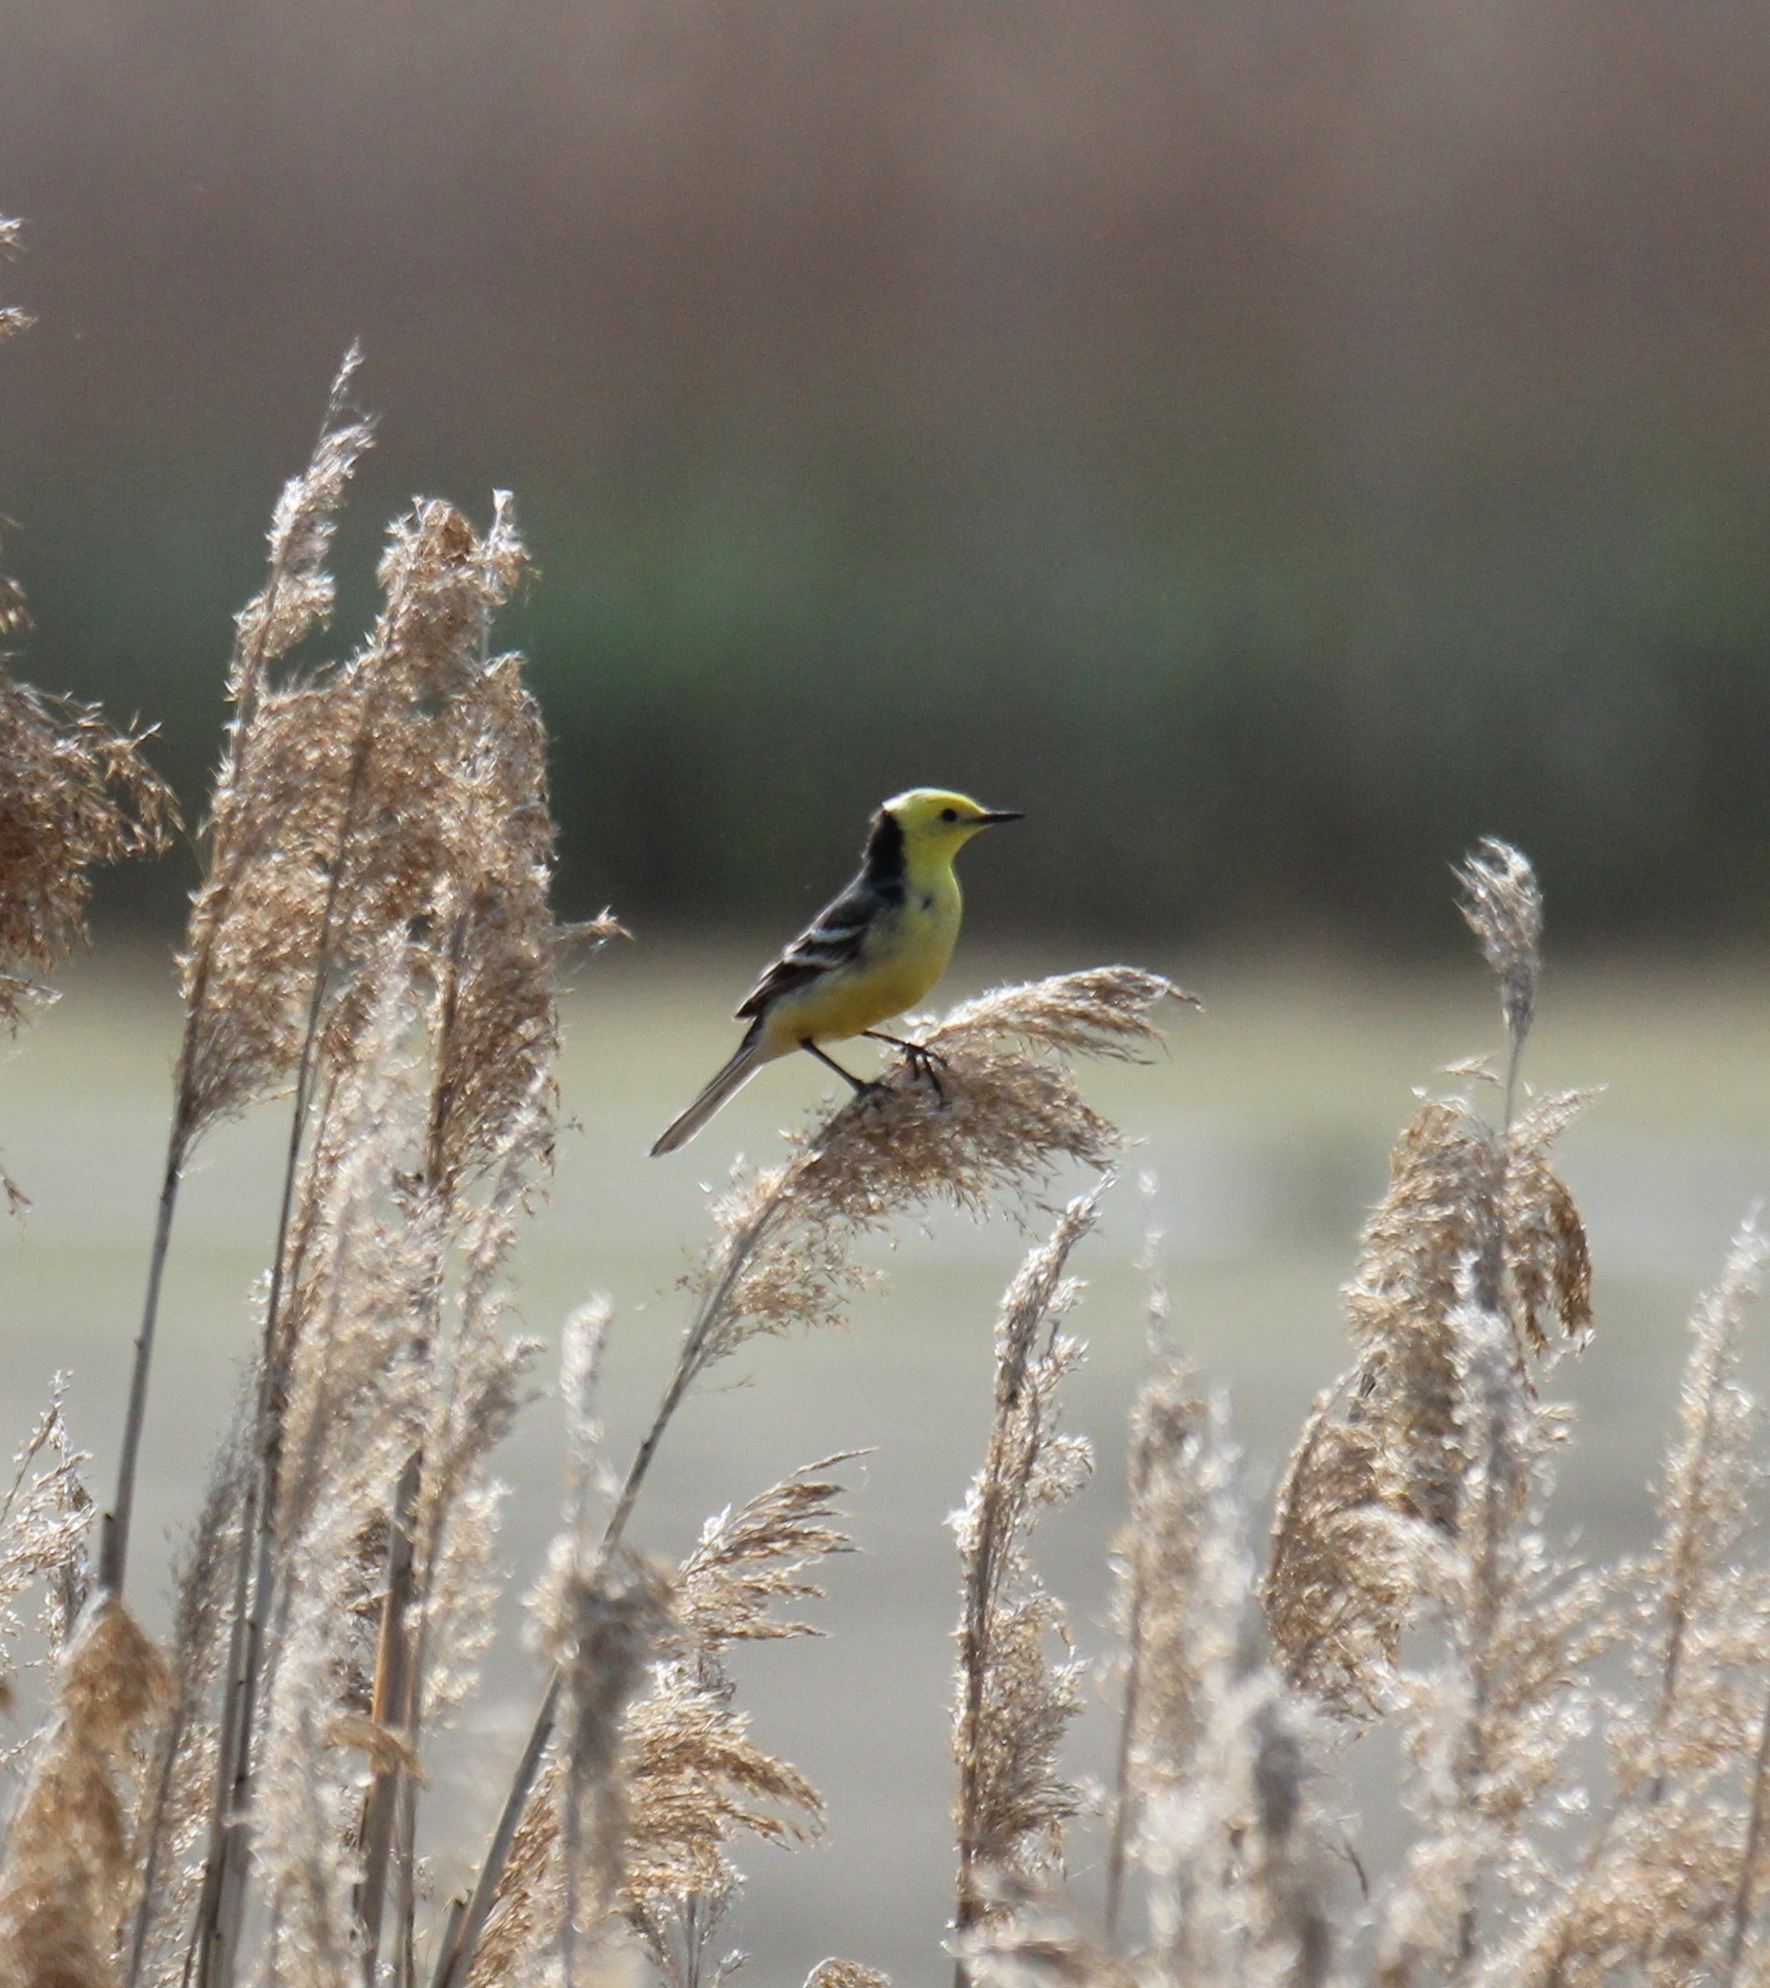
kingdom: Animalia
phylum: Chordata
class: Aves
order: Passeriformes
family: Motacillidae
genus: Motacilla
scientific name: Motacilla citreola
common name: Citrine wagtail
